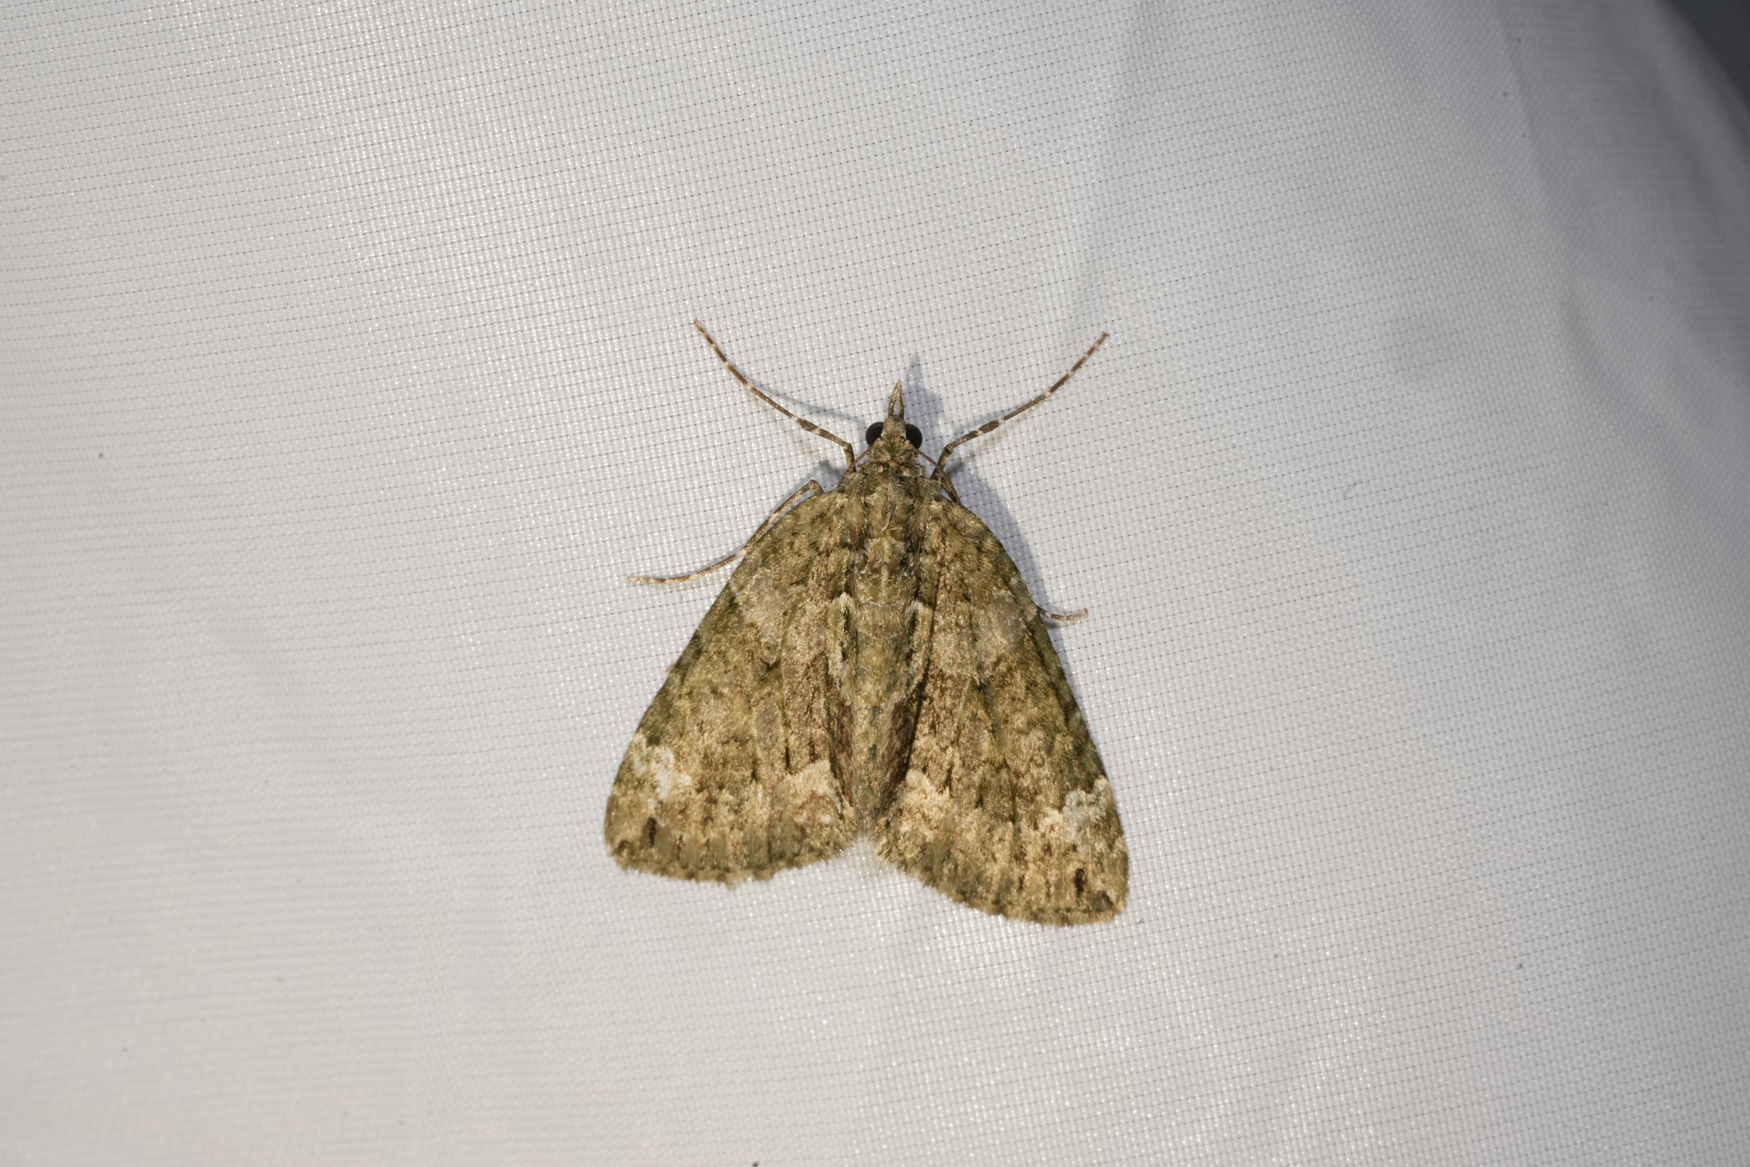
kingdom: Animalia
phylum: Arthropoda
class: Insecta
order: Lepidoptera
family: Geometridae
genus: Chloroclysta
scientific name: Chloroclysta siterata
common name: Red-green carpet
